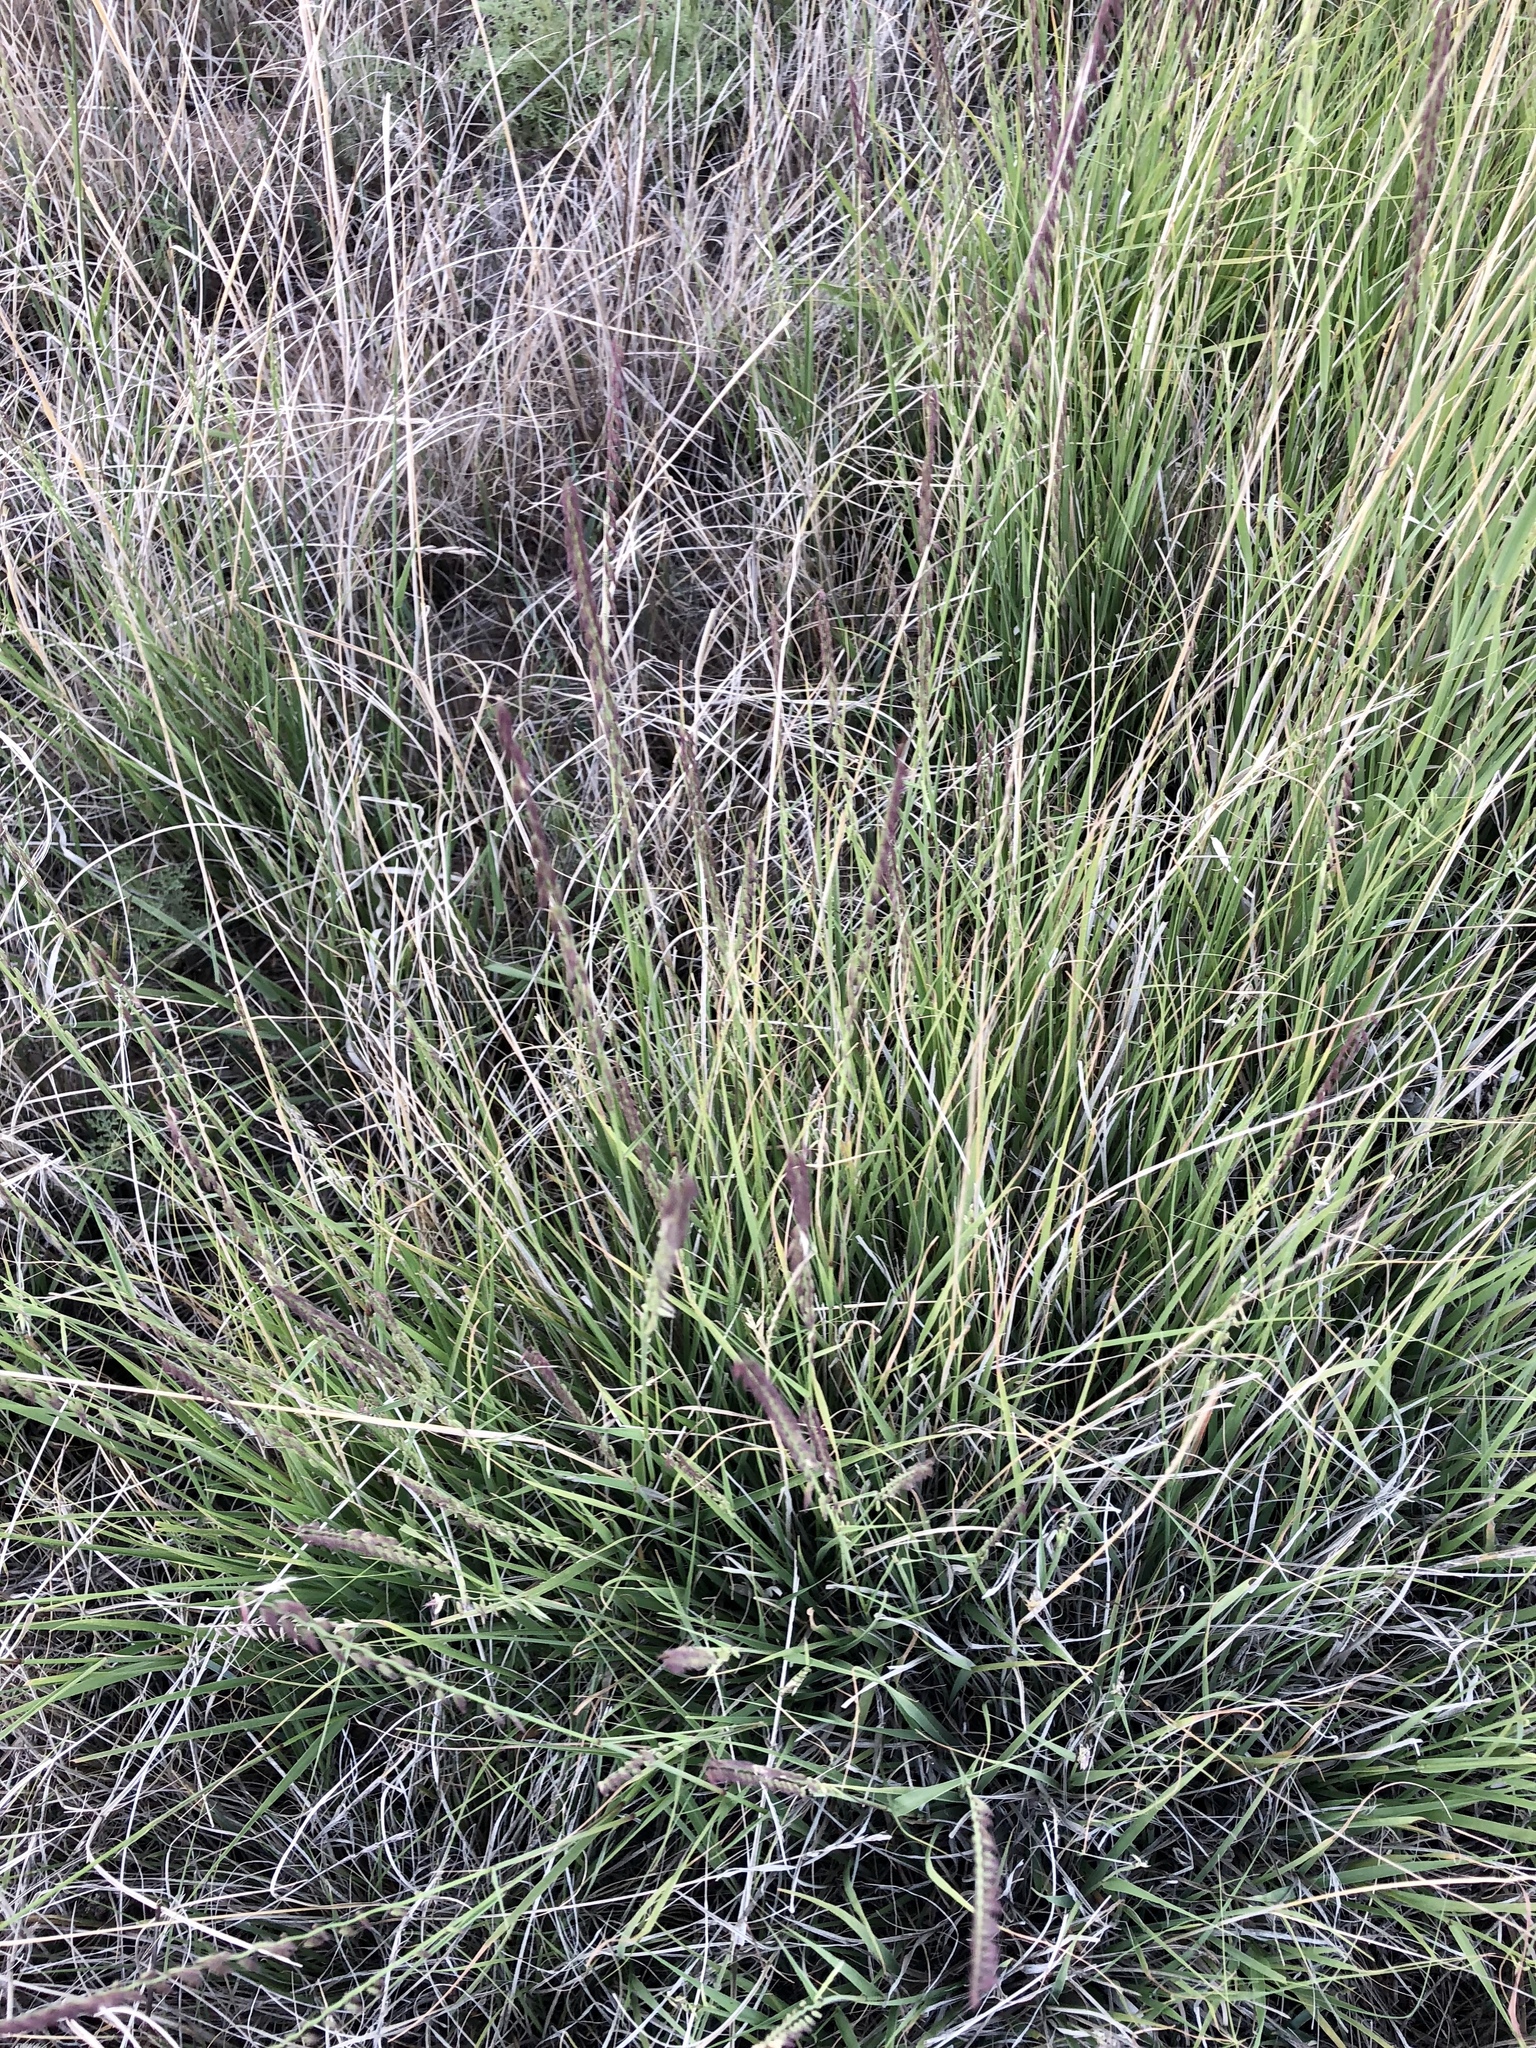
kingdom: Plantae
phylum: Tracheophyta
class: Liliopsida
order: Poales
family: Poaceae
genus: Bouteloua
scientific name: Bouteloua curtipendula
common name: Side-oats grama
